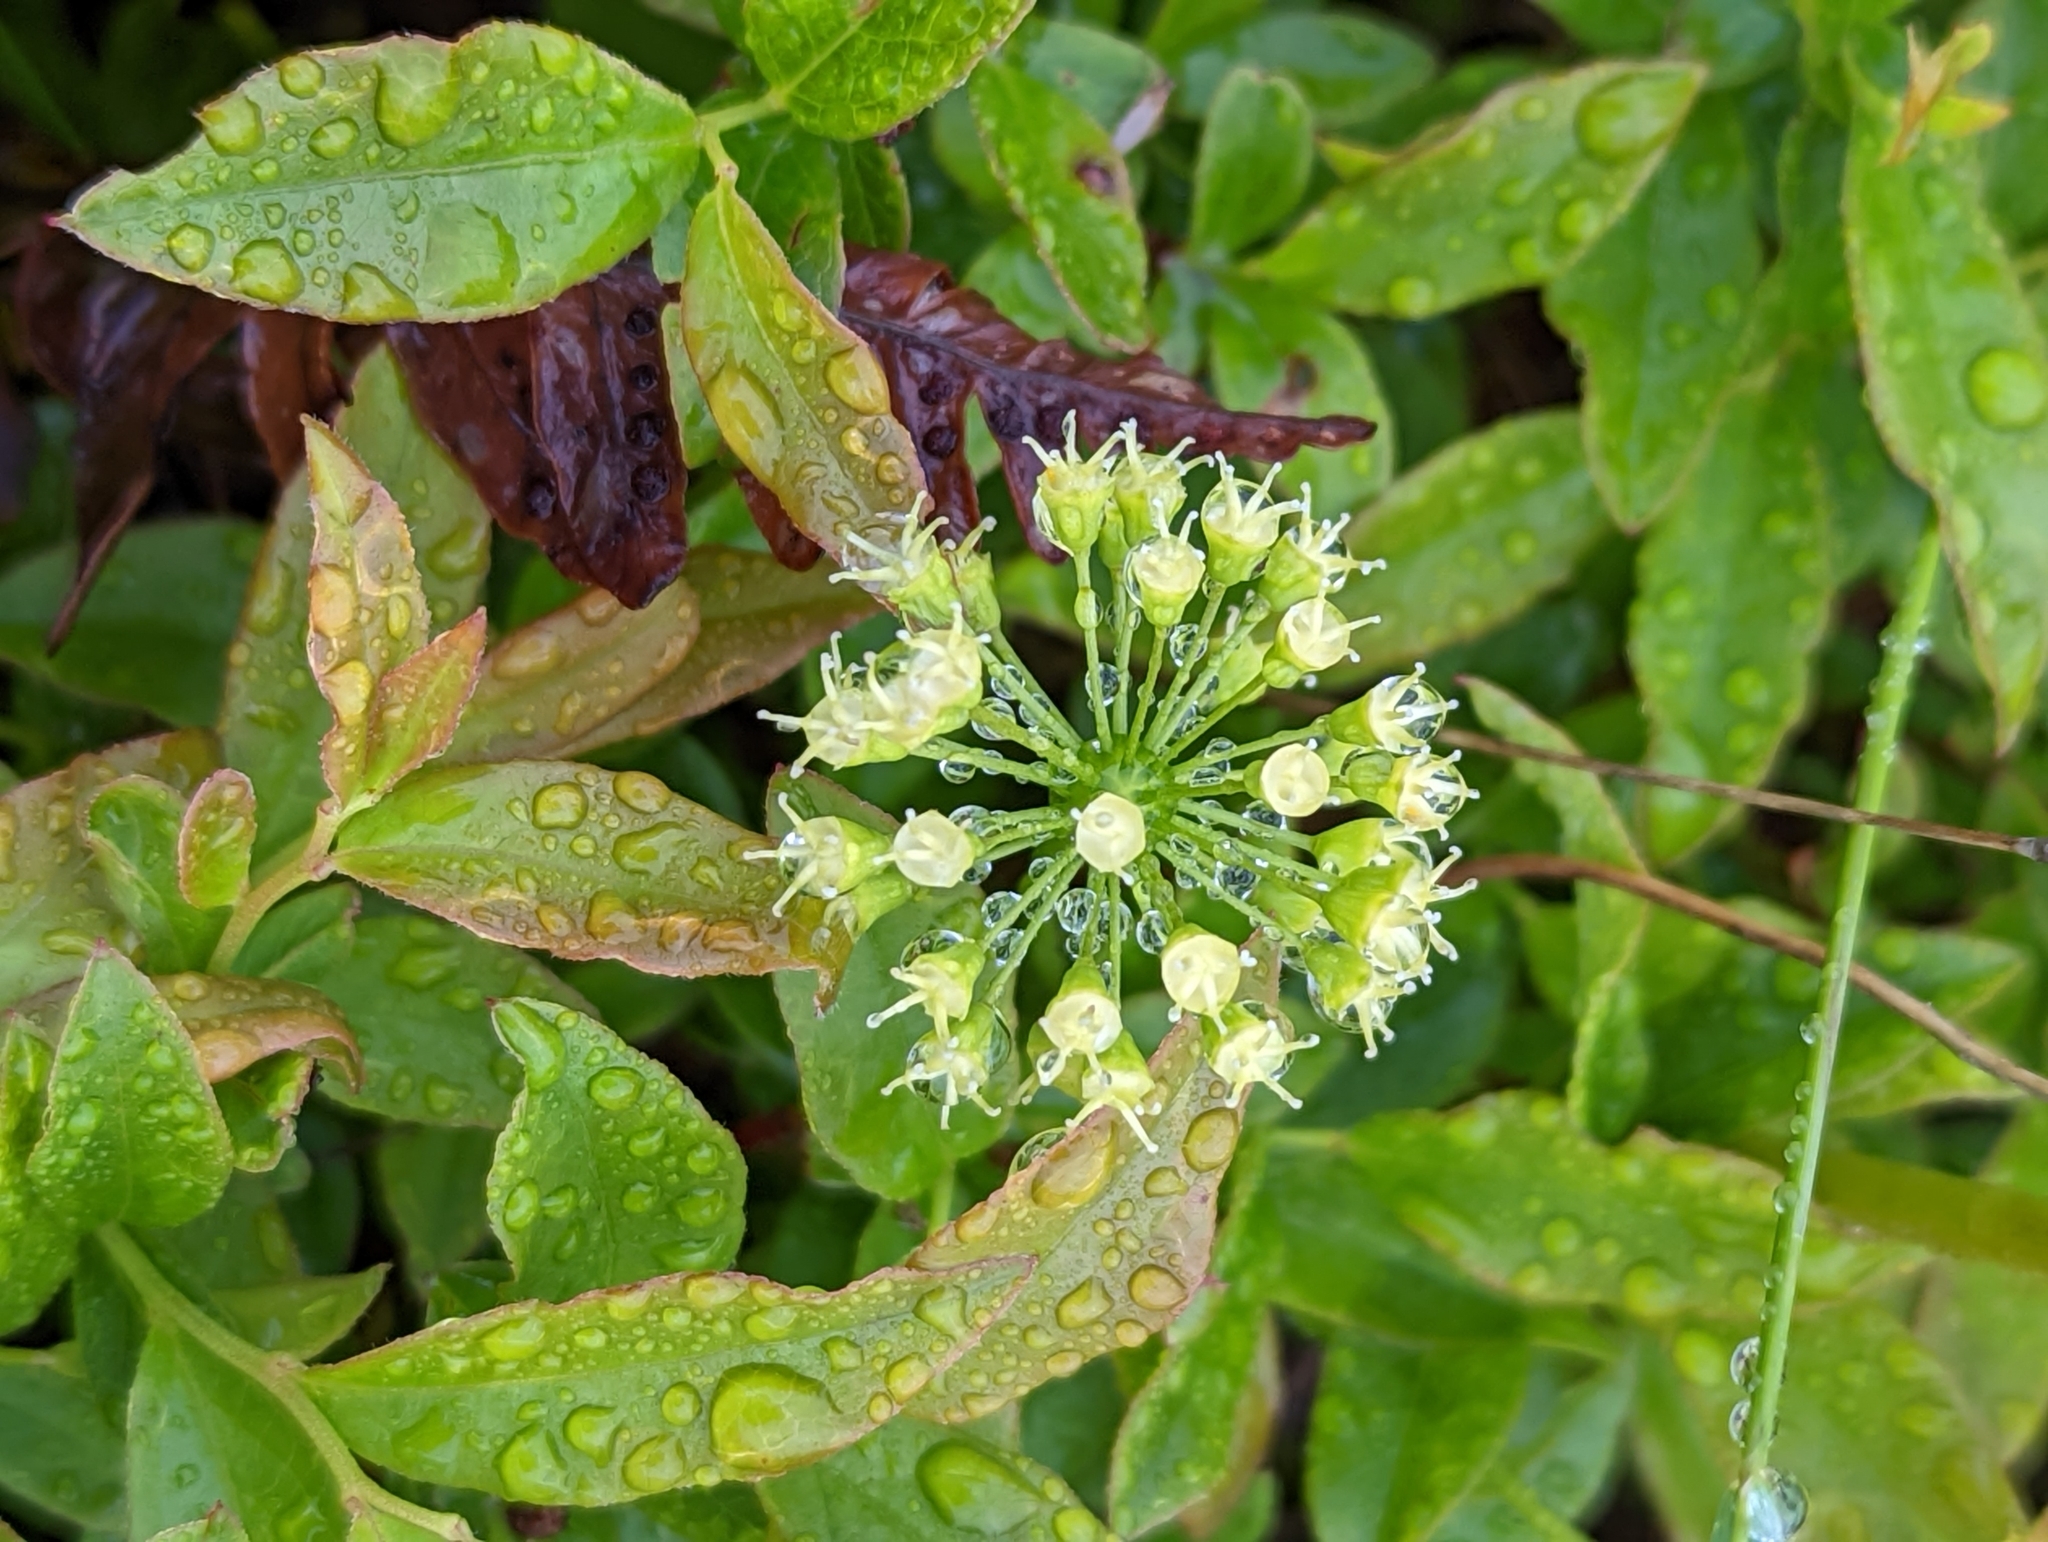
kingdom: Plantae
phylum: Tracheophyta
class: Magnoliopsida
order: Apiales
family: Araliaceae
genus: Aralia
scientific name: Aralia nudicaulis
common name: Wild sarsaparilla
